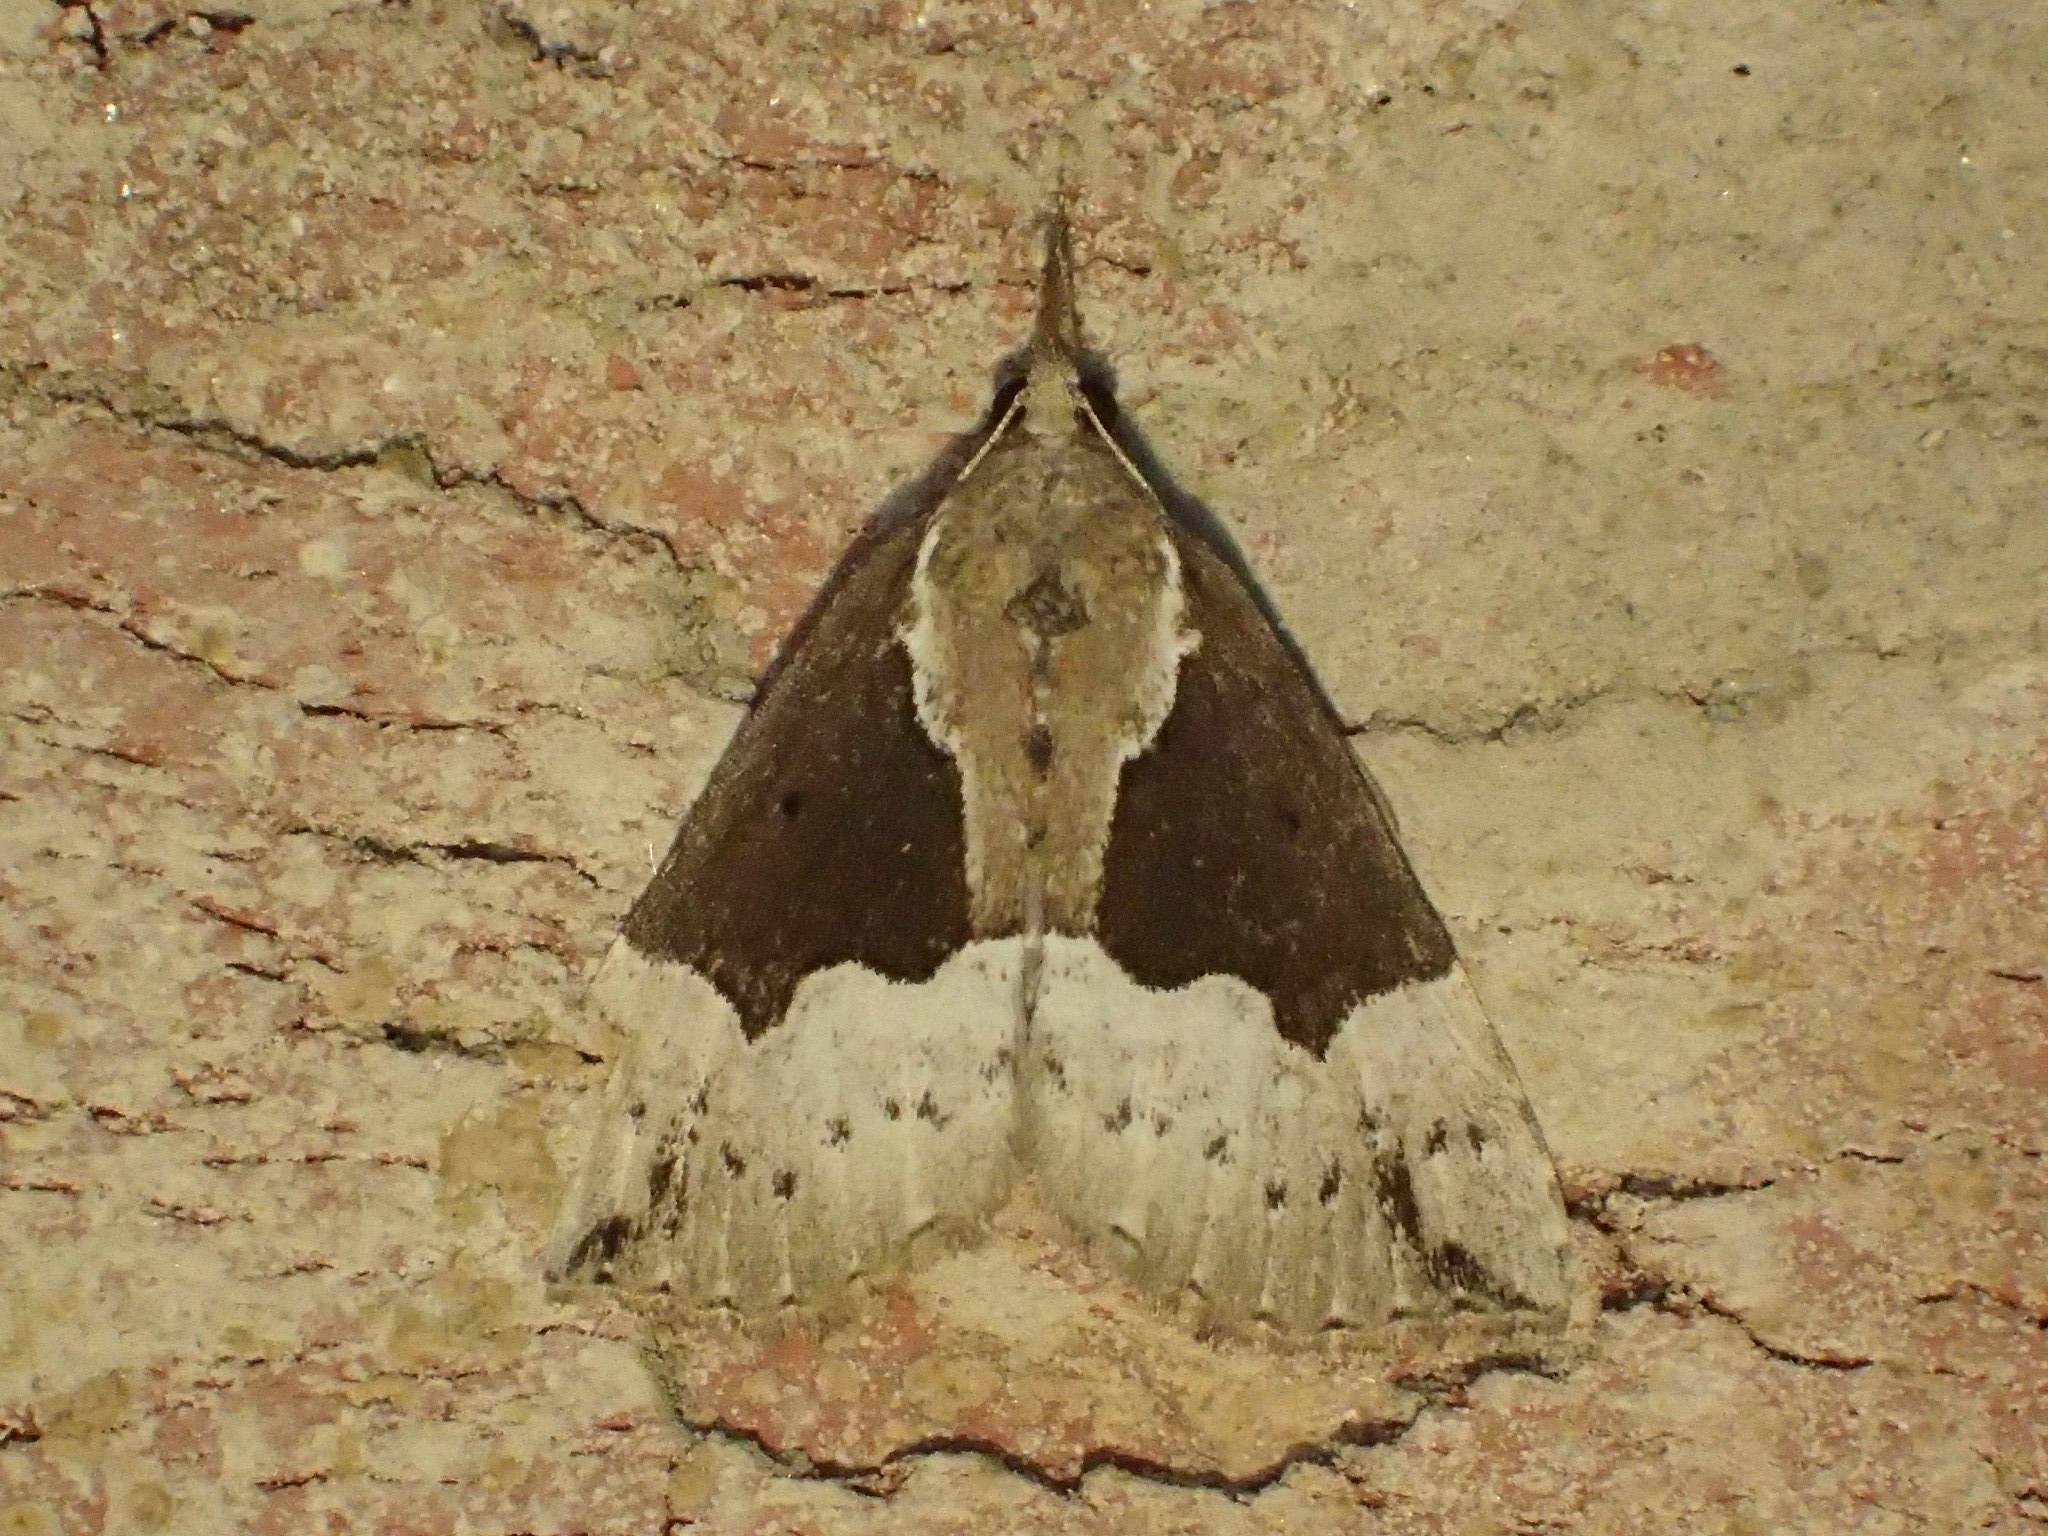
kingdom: Animalia
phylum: Arthropoda
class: Insecta
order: Lepidoptera
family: Erebidae
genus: Hypena
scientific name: Hypena bijugalis
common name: Dimorphic bomolocha moth
